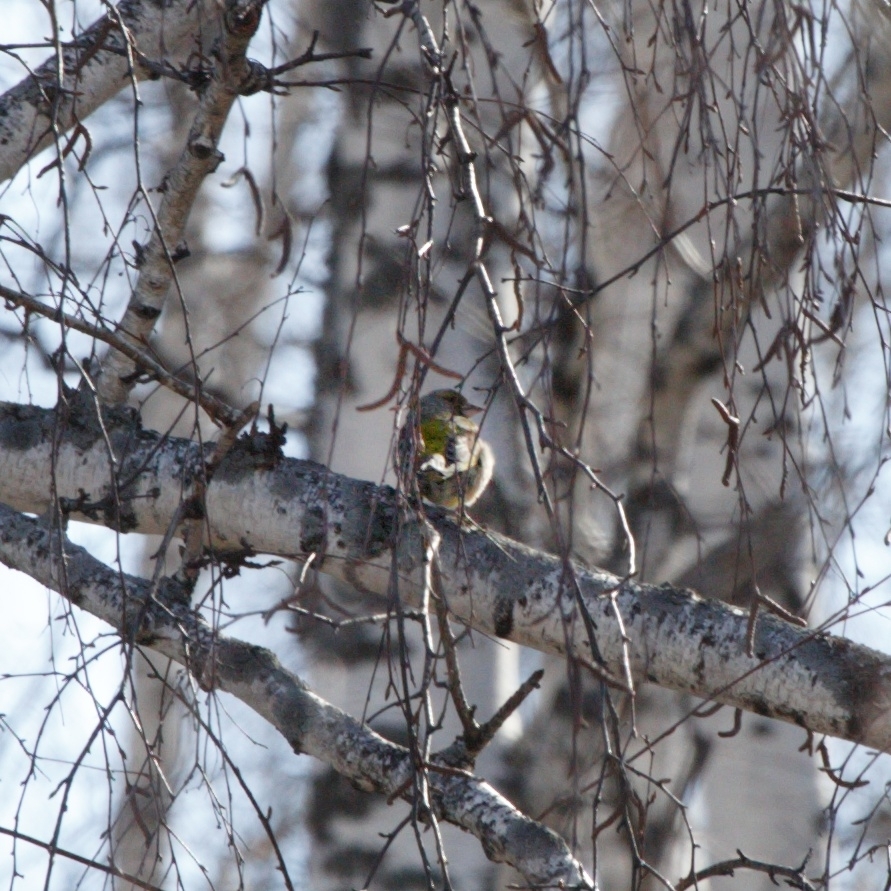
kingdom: Plantae
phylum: Tracheophyta
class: Liliopsida
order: Poales
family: Poaceae
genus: Chloris
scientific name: Chloris chloris
